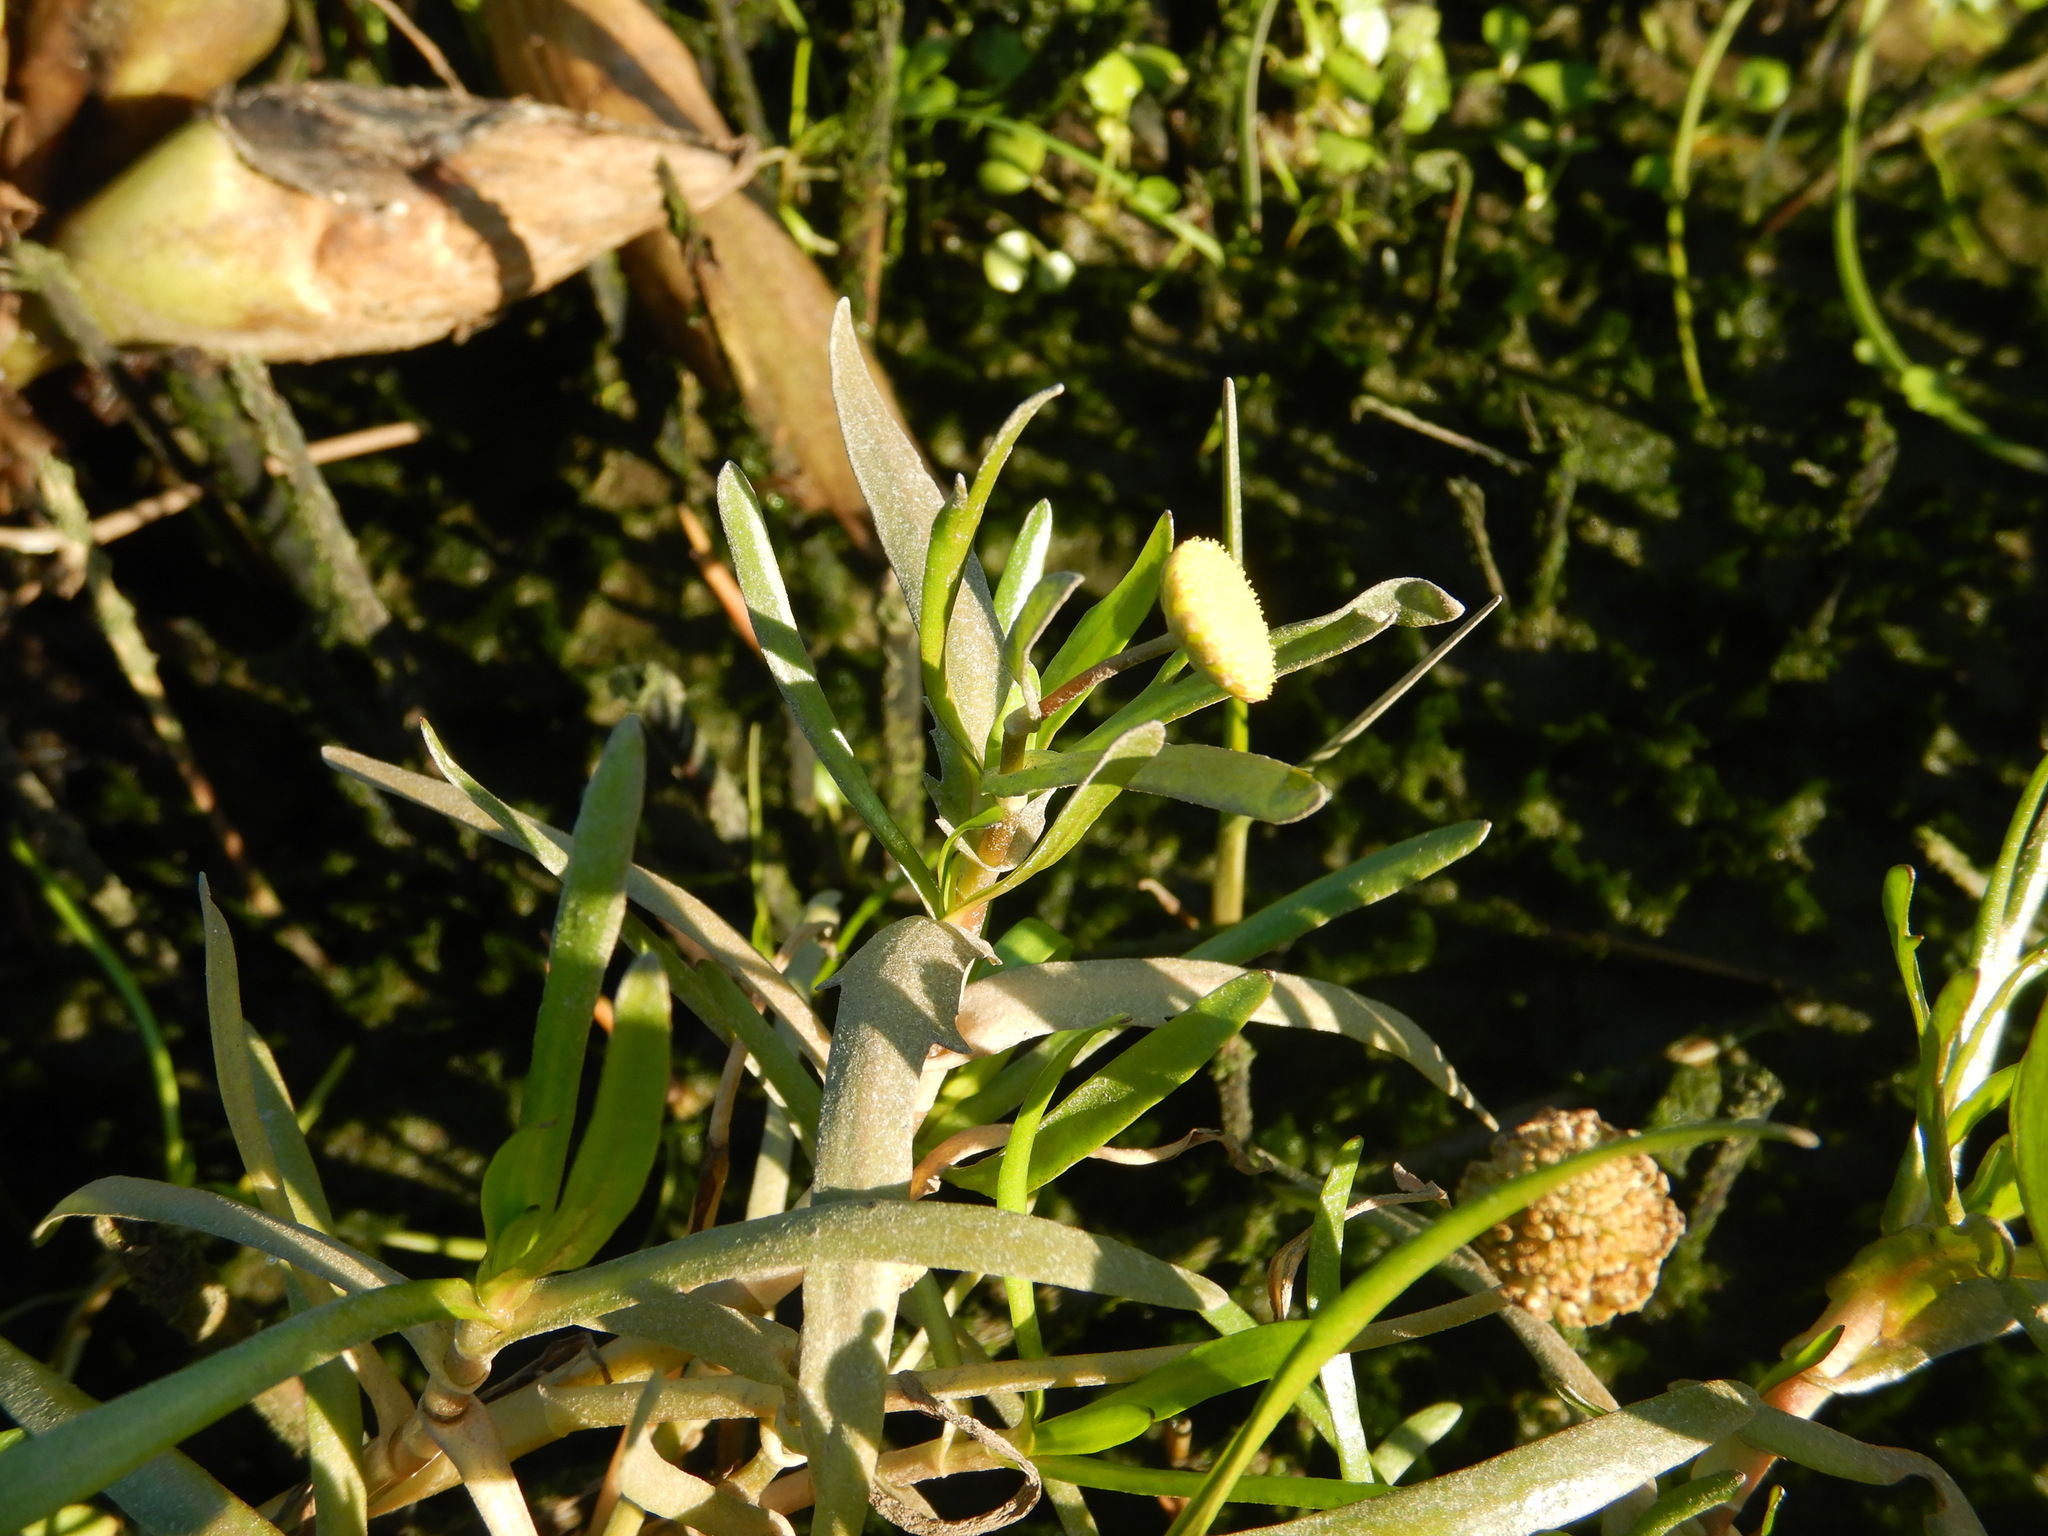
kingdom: Plantae
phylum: Tracheophyta
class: Magnoliopsida
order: Asterales
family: Asteraceae
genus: Cotula
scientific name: Cotula coronopifolia
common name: Buttonweed
